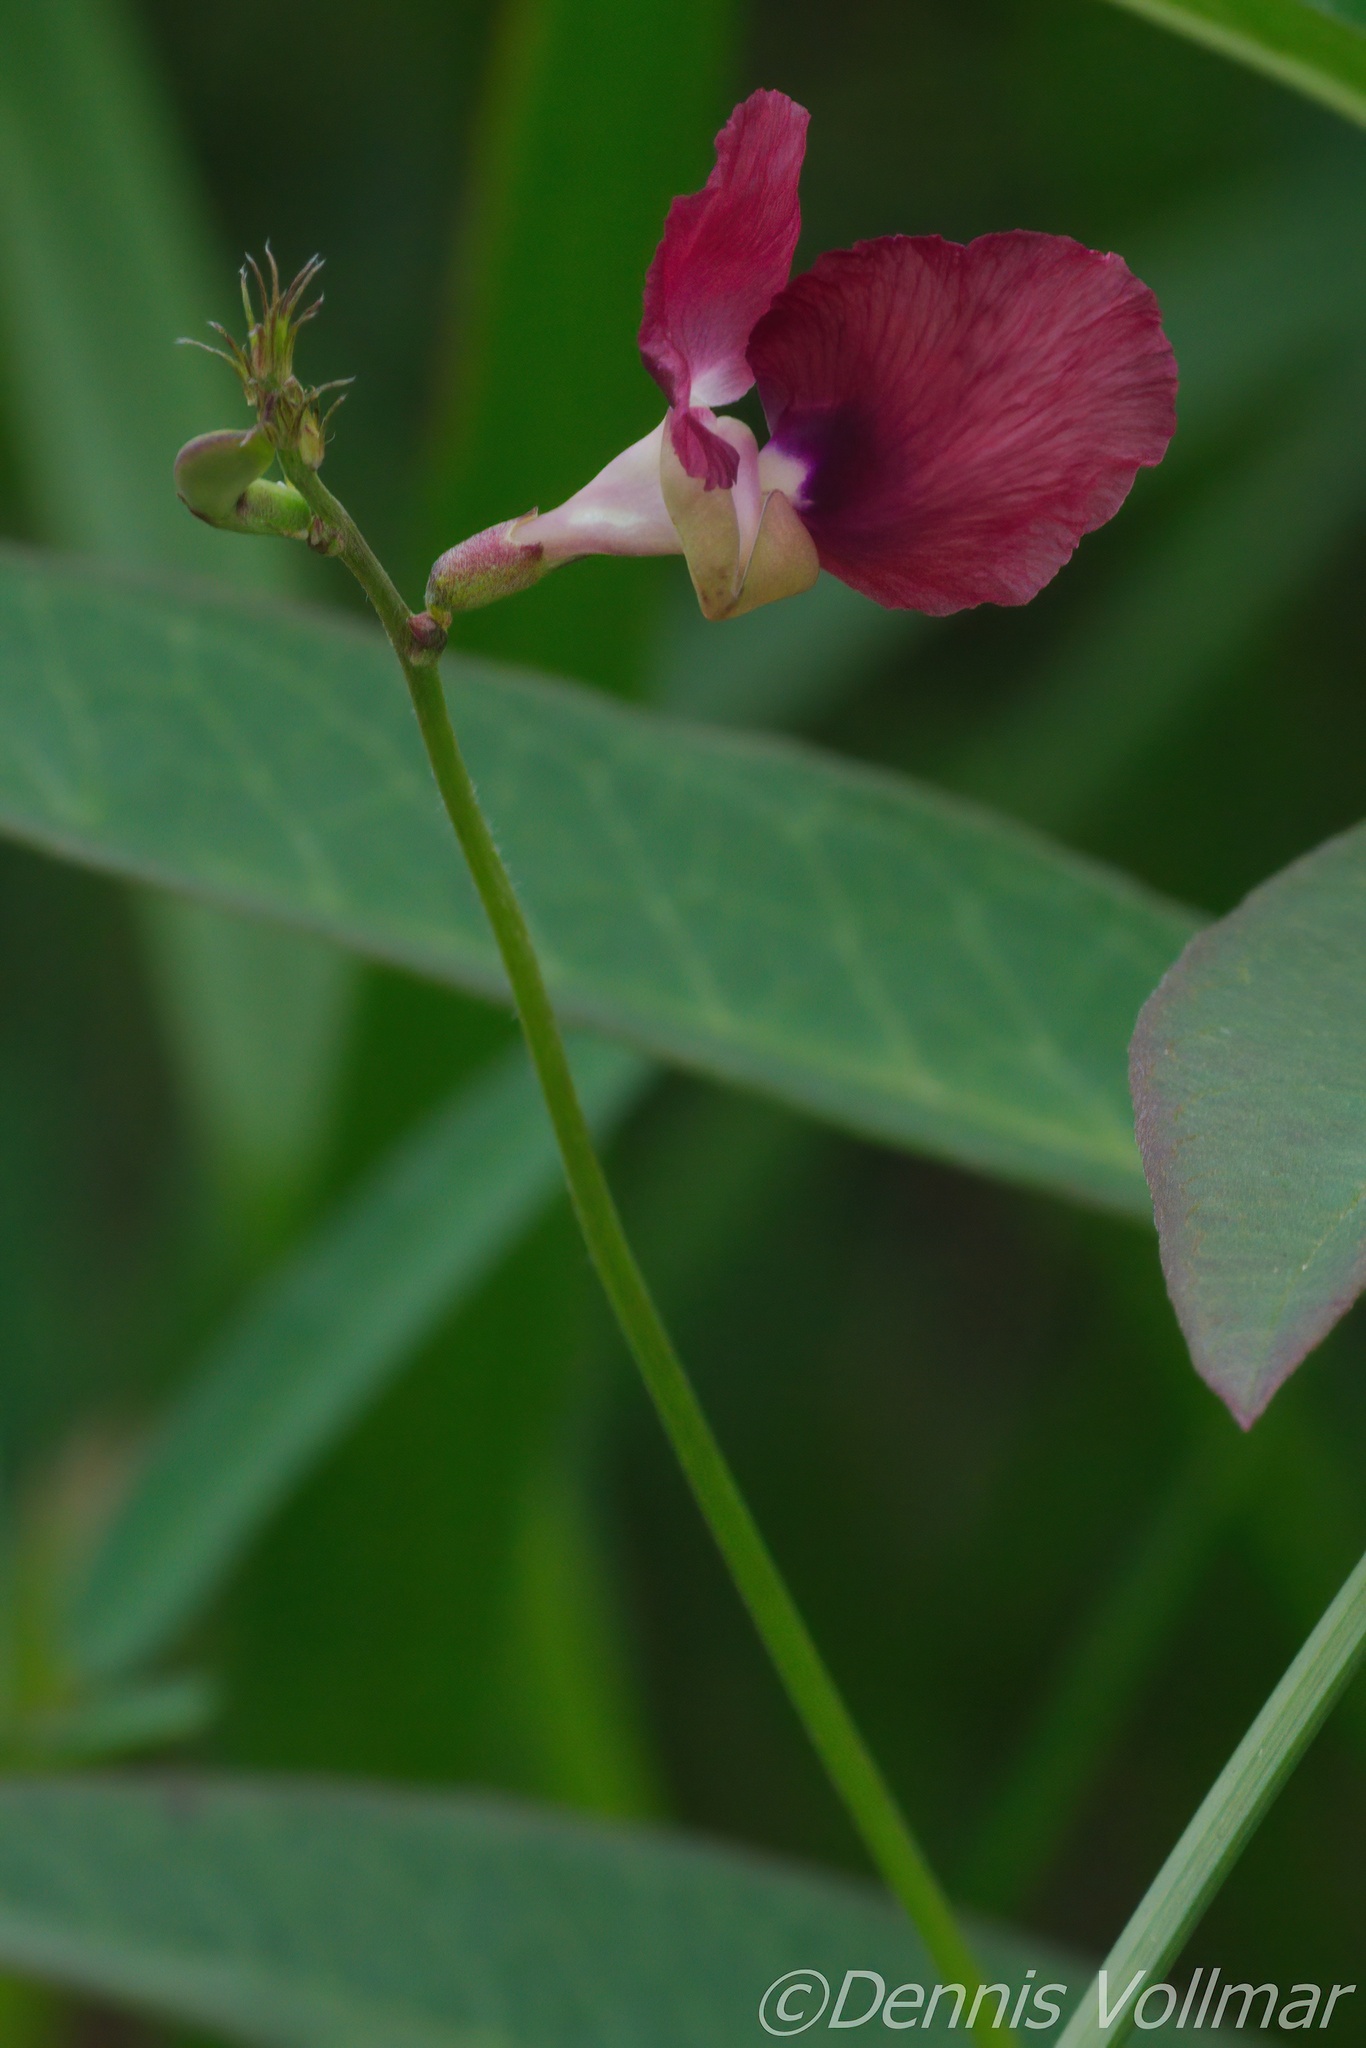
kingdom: Plantae
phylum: Tracheophyta
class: Magnoliopsida
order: Fabales
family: Fabaceae
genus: Macroptilium
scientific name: Macroptilium lathyroides
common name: Wild bushbean
